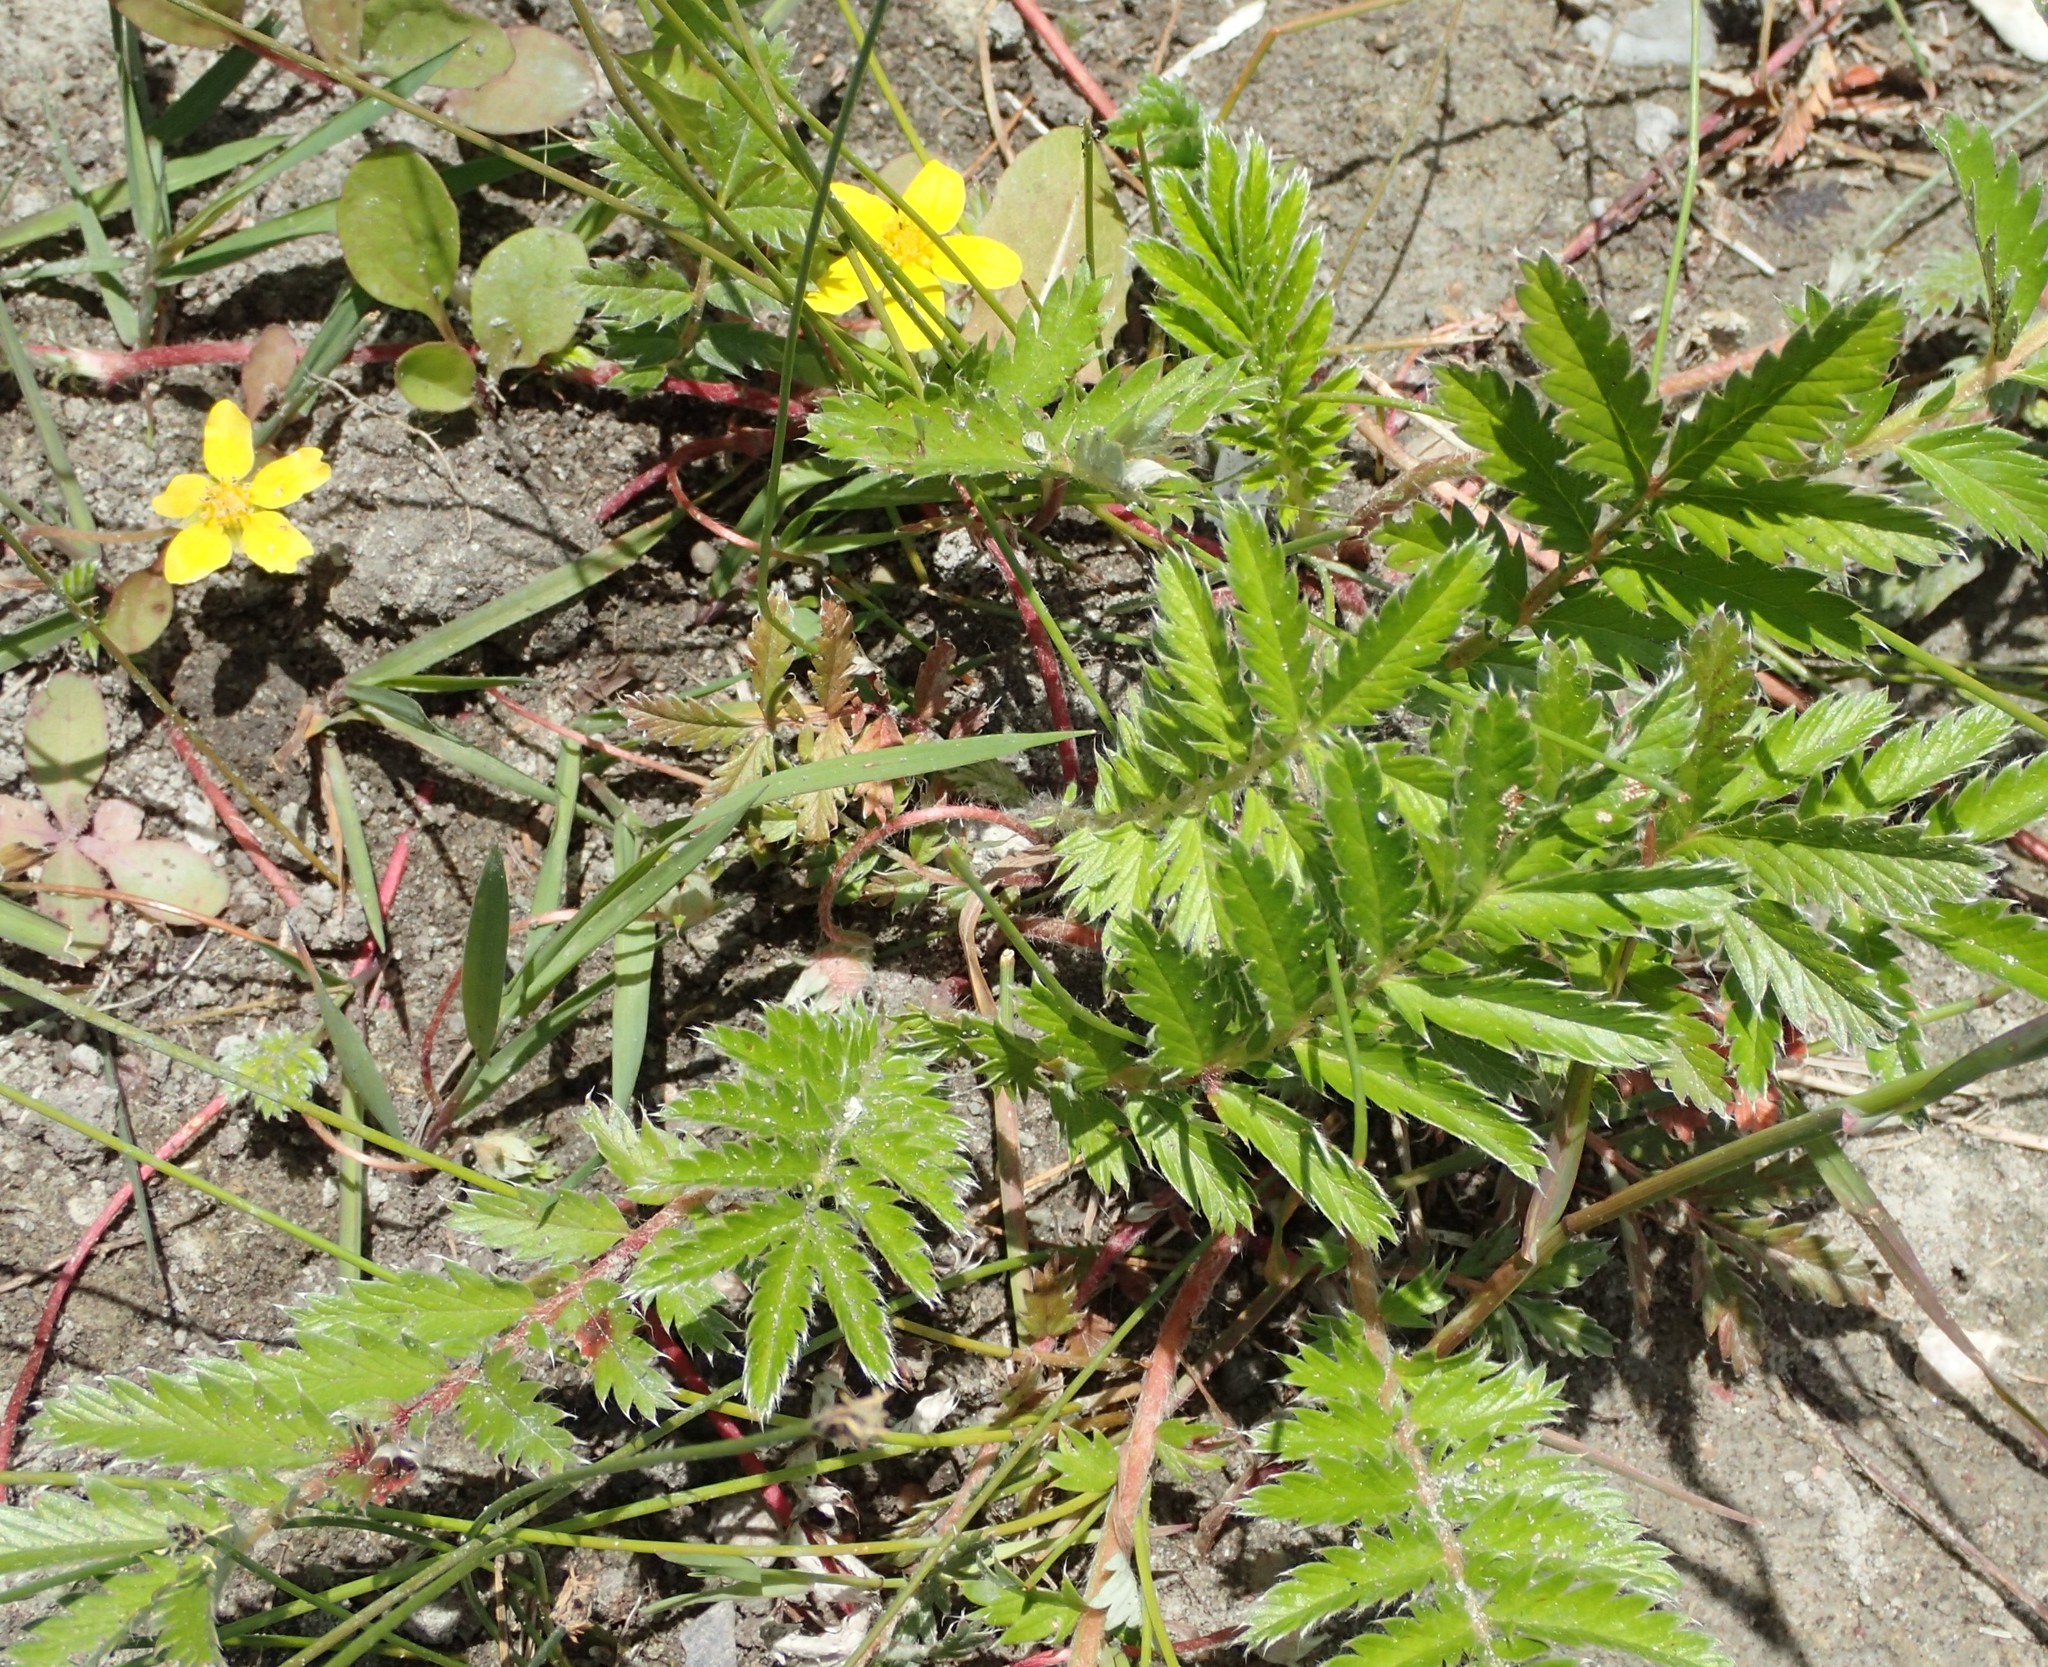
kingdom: Plantae
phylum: Tracheophyta
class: Magnoliopsida
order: Rosales
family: Rosaceae
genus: Argentina
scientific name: Argentina anserina
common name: Common silverweed
